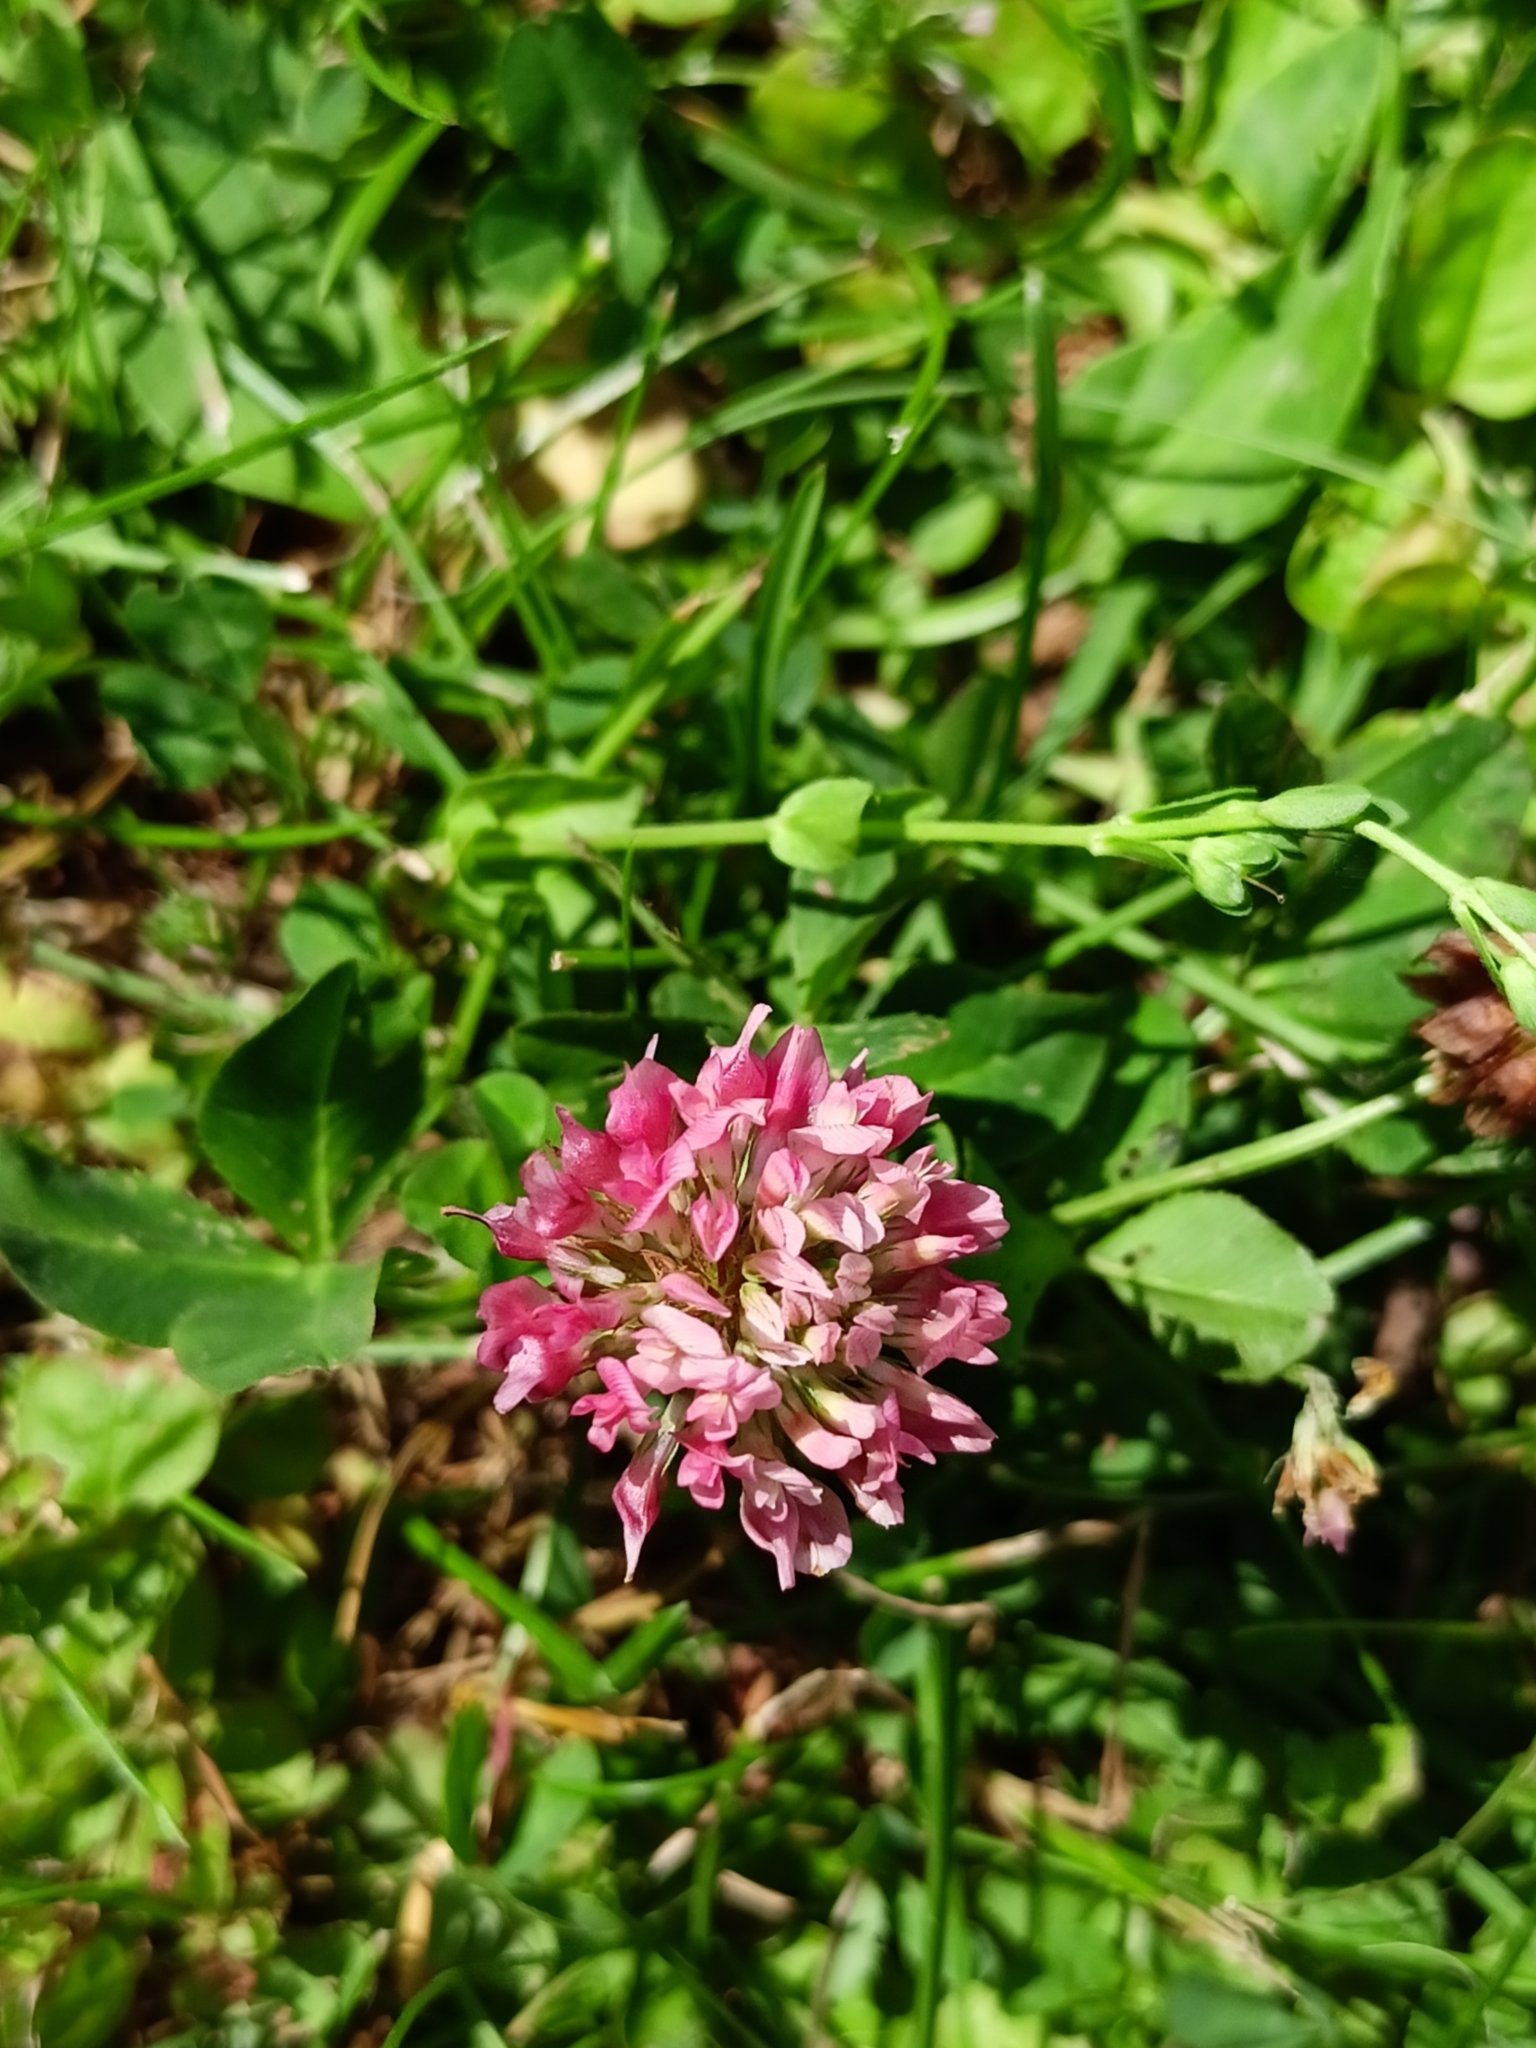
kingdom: Plantae
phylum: Tracheophyta
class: Magnoliopsida
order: Fabales
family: Fabaceae
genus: Trifolium
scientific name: Trifolium hybridum
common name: Alsike clover
